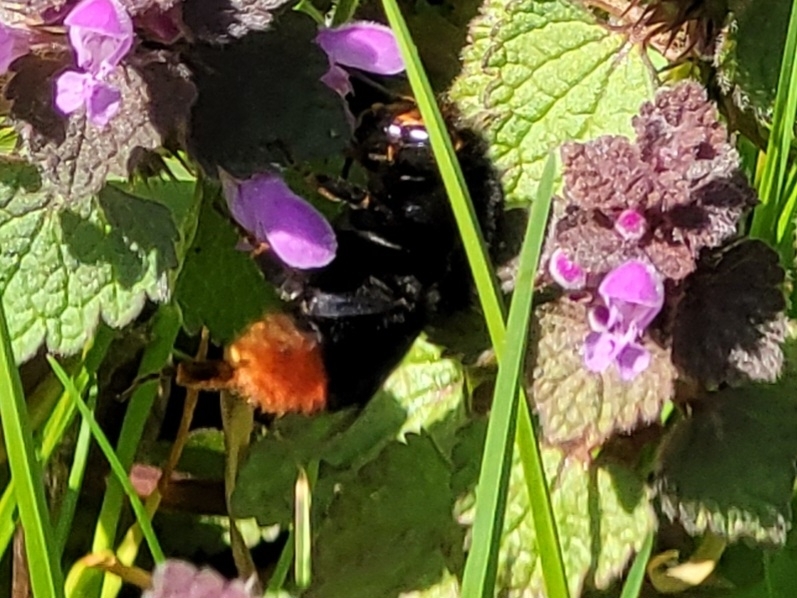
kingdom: Animalia
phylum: Arthropoda
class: Insecta
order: Hymenoptera
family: Apidae
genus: Bombus
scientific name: Bombus lapidarius
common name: Large red-tailed humble-bee
